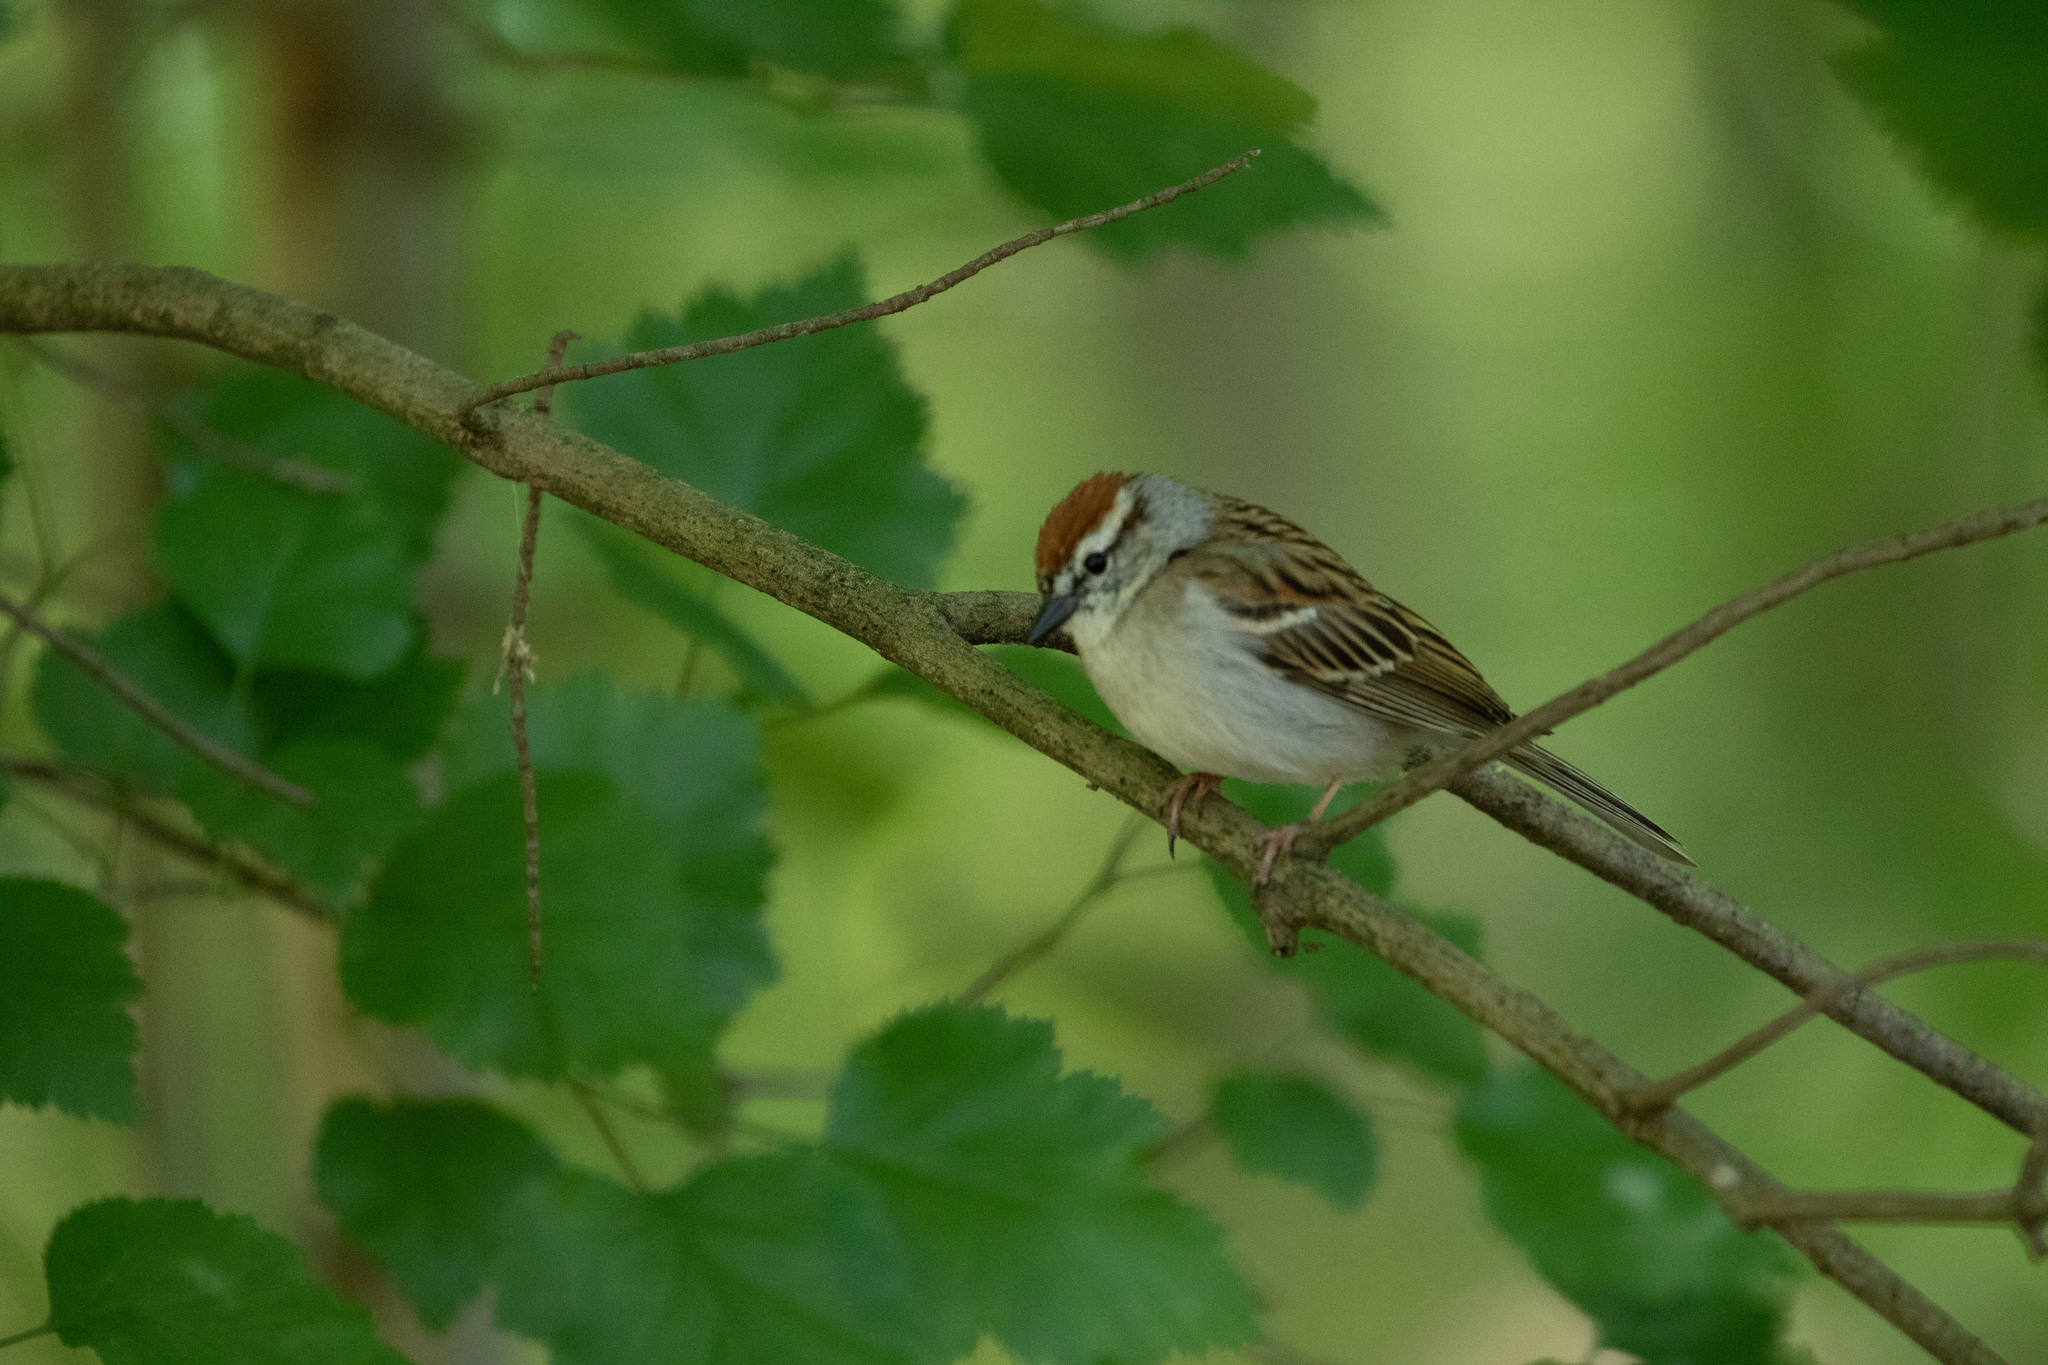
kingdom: Animalia
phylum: Chordata
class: Aves
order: Passeriformes
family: Passerellidae
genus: Spizella
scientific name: Spizella passerina
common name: Chipping sparrow
